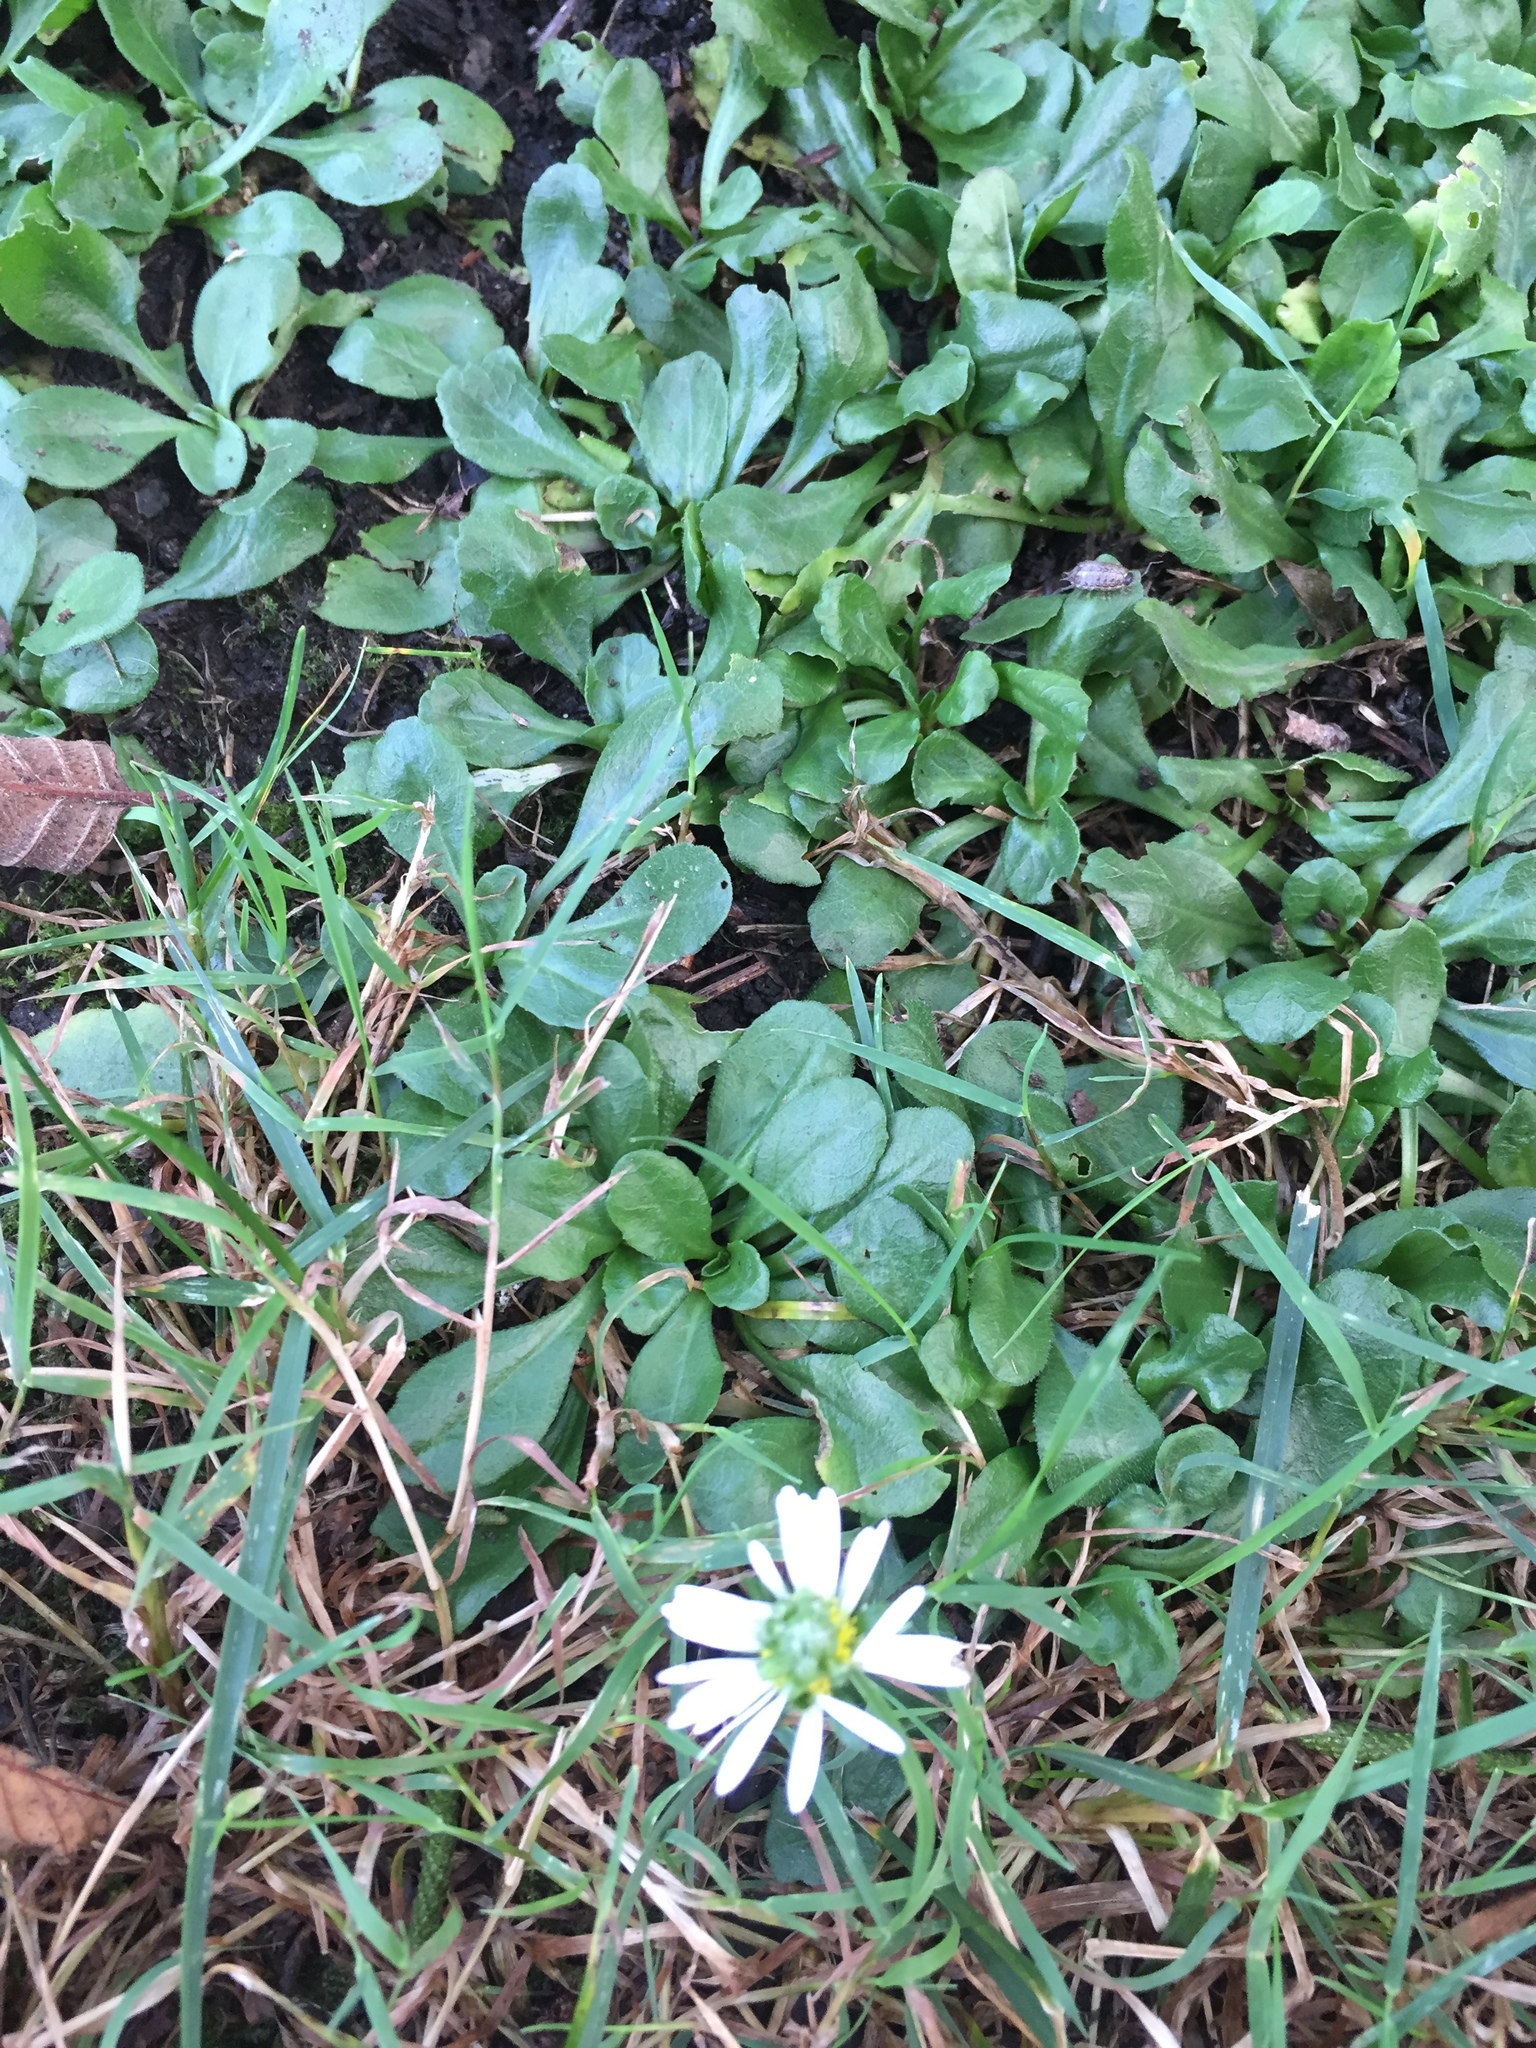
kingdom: Plantae
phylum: Tracheophyta
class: Magnoliopsida
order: Asterales
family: Asteraceae
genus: Bellis
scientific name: Bellis perennis
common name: Lawndaisy
